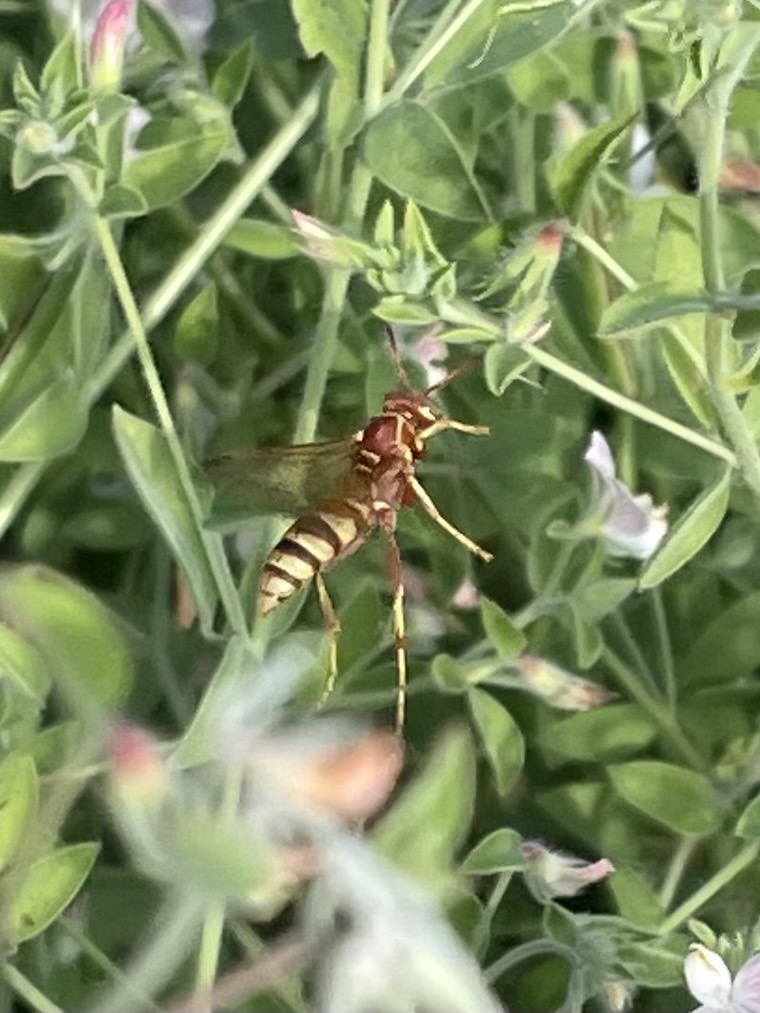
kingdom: Animalia
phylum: Arthropoda
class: Insecta
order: Hymenoptera
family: Eumenidae
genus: Polistes
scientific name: Polistes dorsalis
